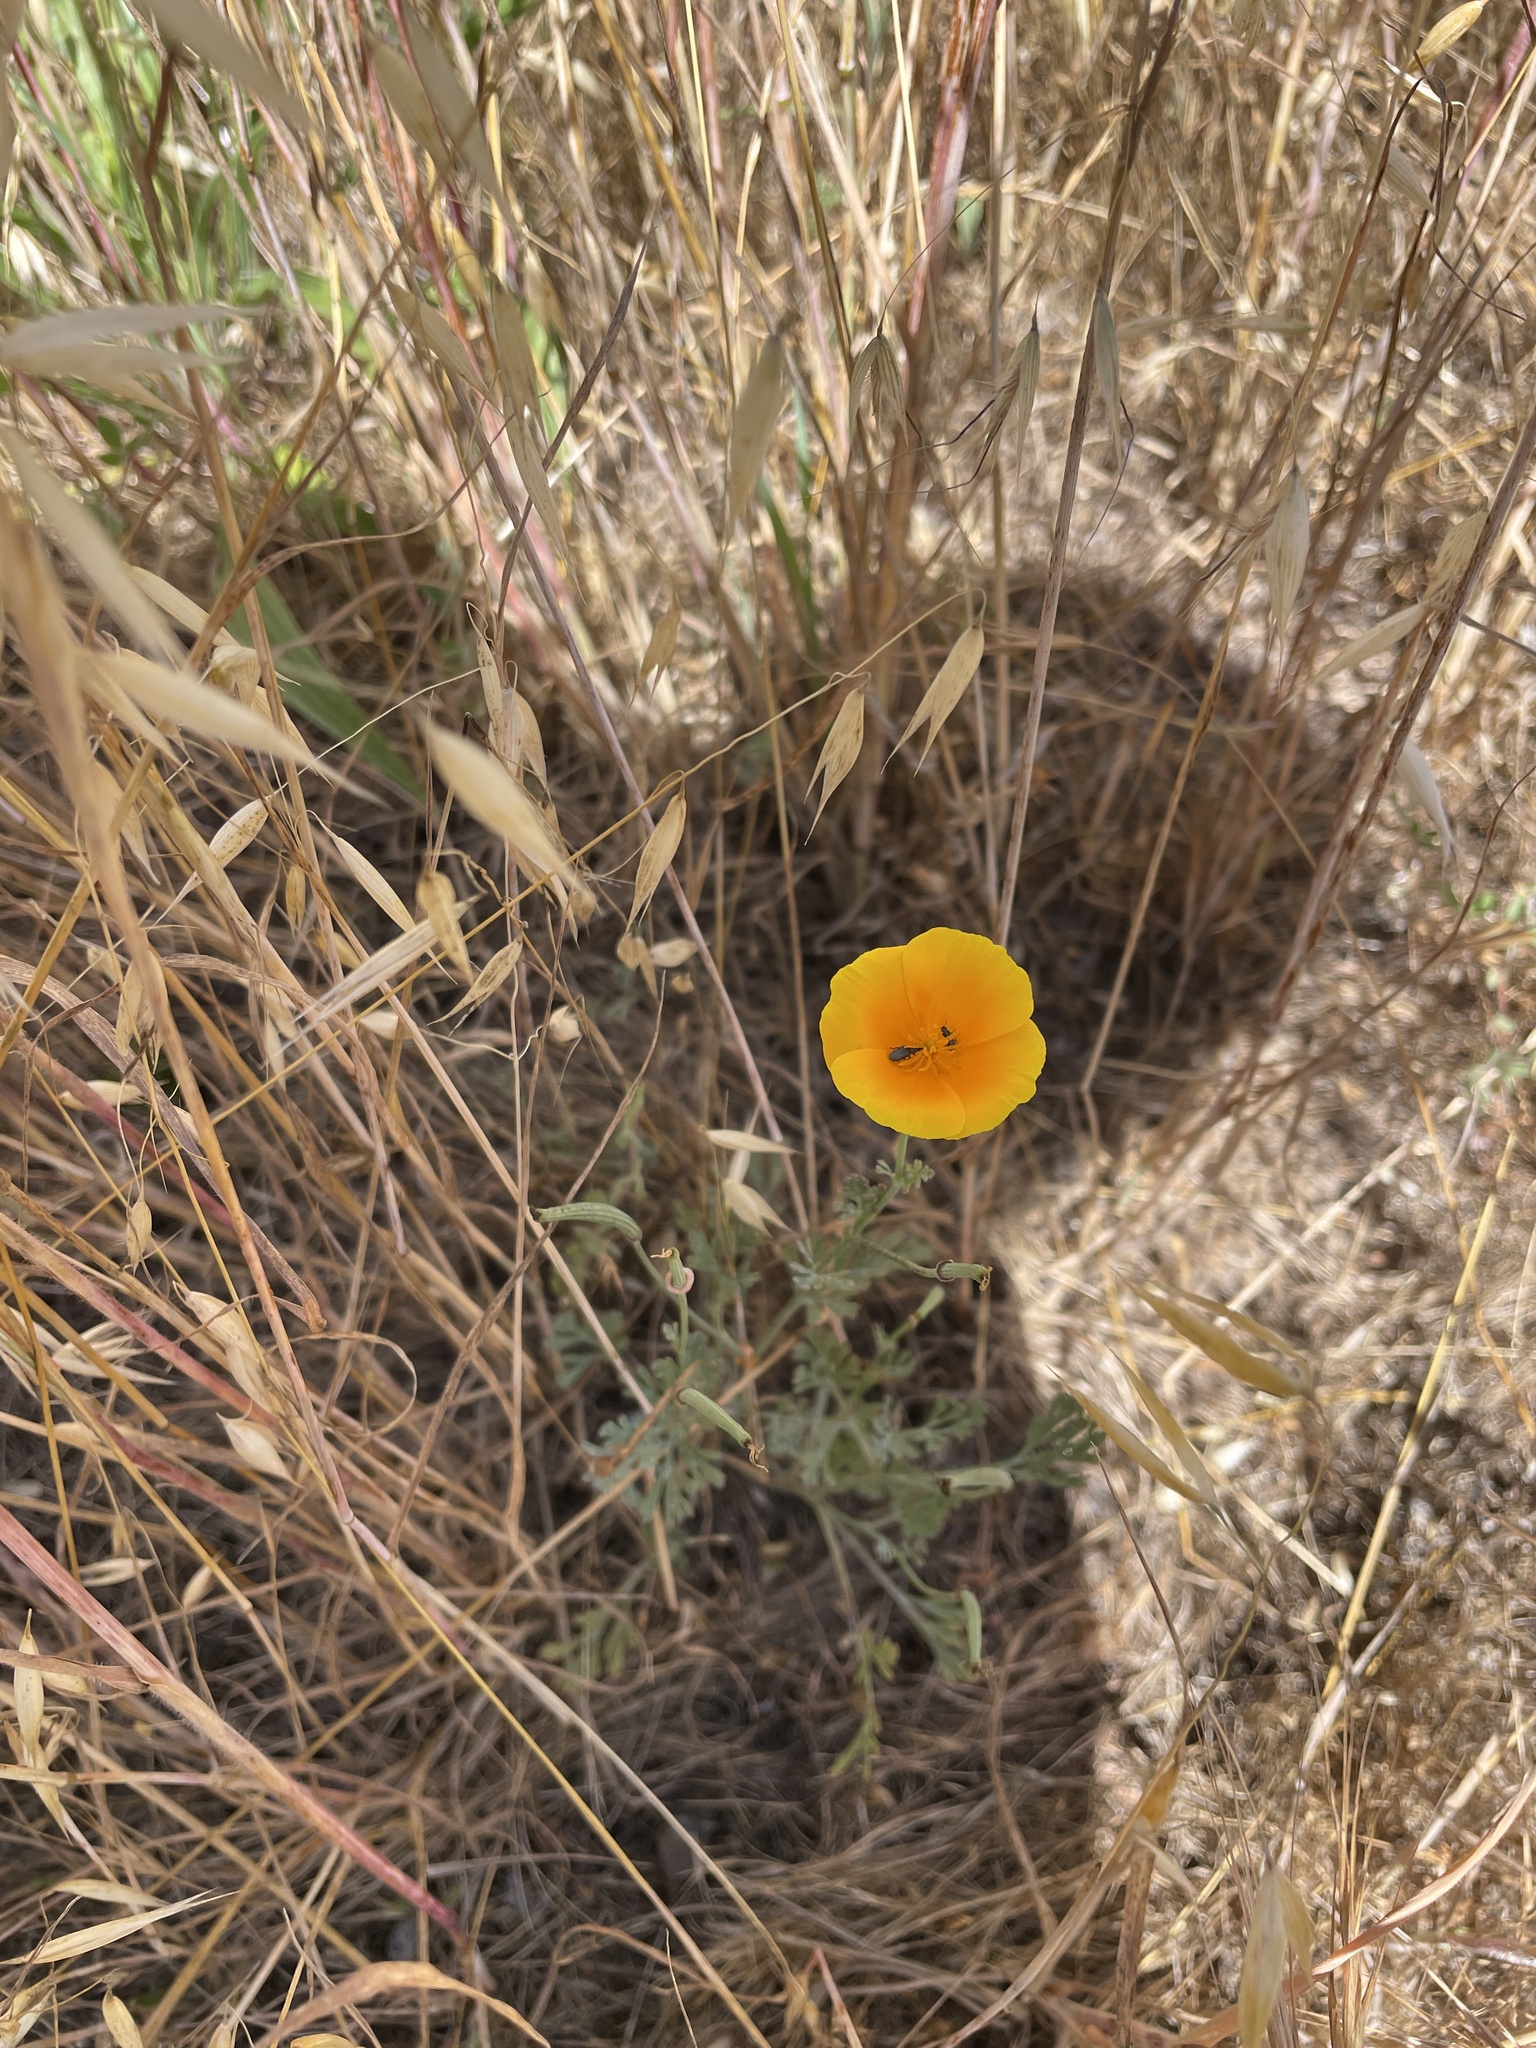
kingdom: Plantae
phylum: Tracheophyta
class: Magnoliopsida
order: Ranunculales
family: Papaveraceae
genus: Eschscholzia
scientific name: Eschscholzia californica
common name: California poppy
